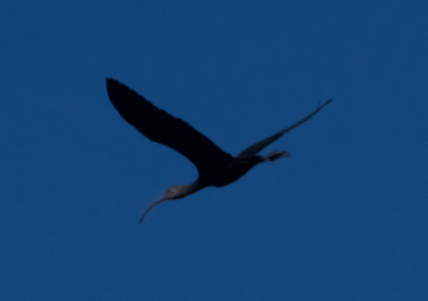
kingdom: Animalia
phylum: Chordata
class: Aves
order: Pelecaniformes
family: Threskiornithidae
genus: Plegadis
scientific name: Plegadis chihi
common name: White-faced ibis
